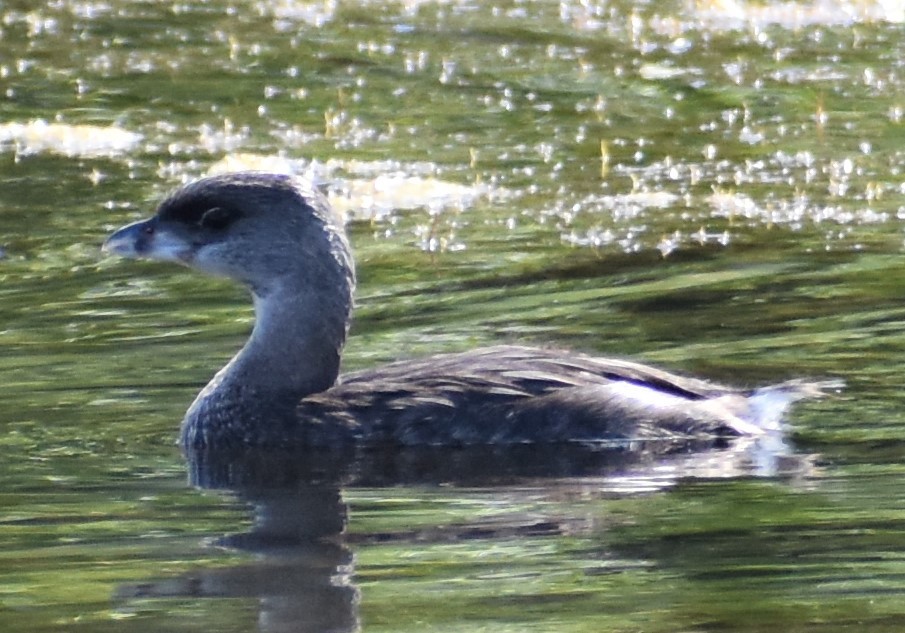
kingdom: Animalia
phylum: Chordata
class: Aves
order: Podicipediformes
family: Podicipedidae
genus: Podilymbus
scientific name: Podilymbus podiceps
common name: Pied-billed grebe
